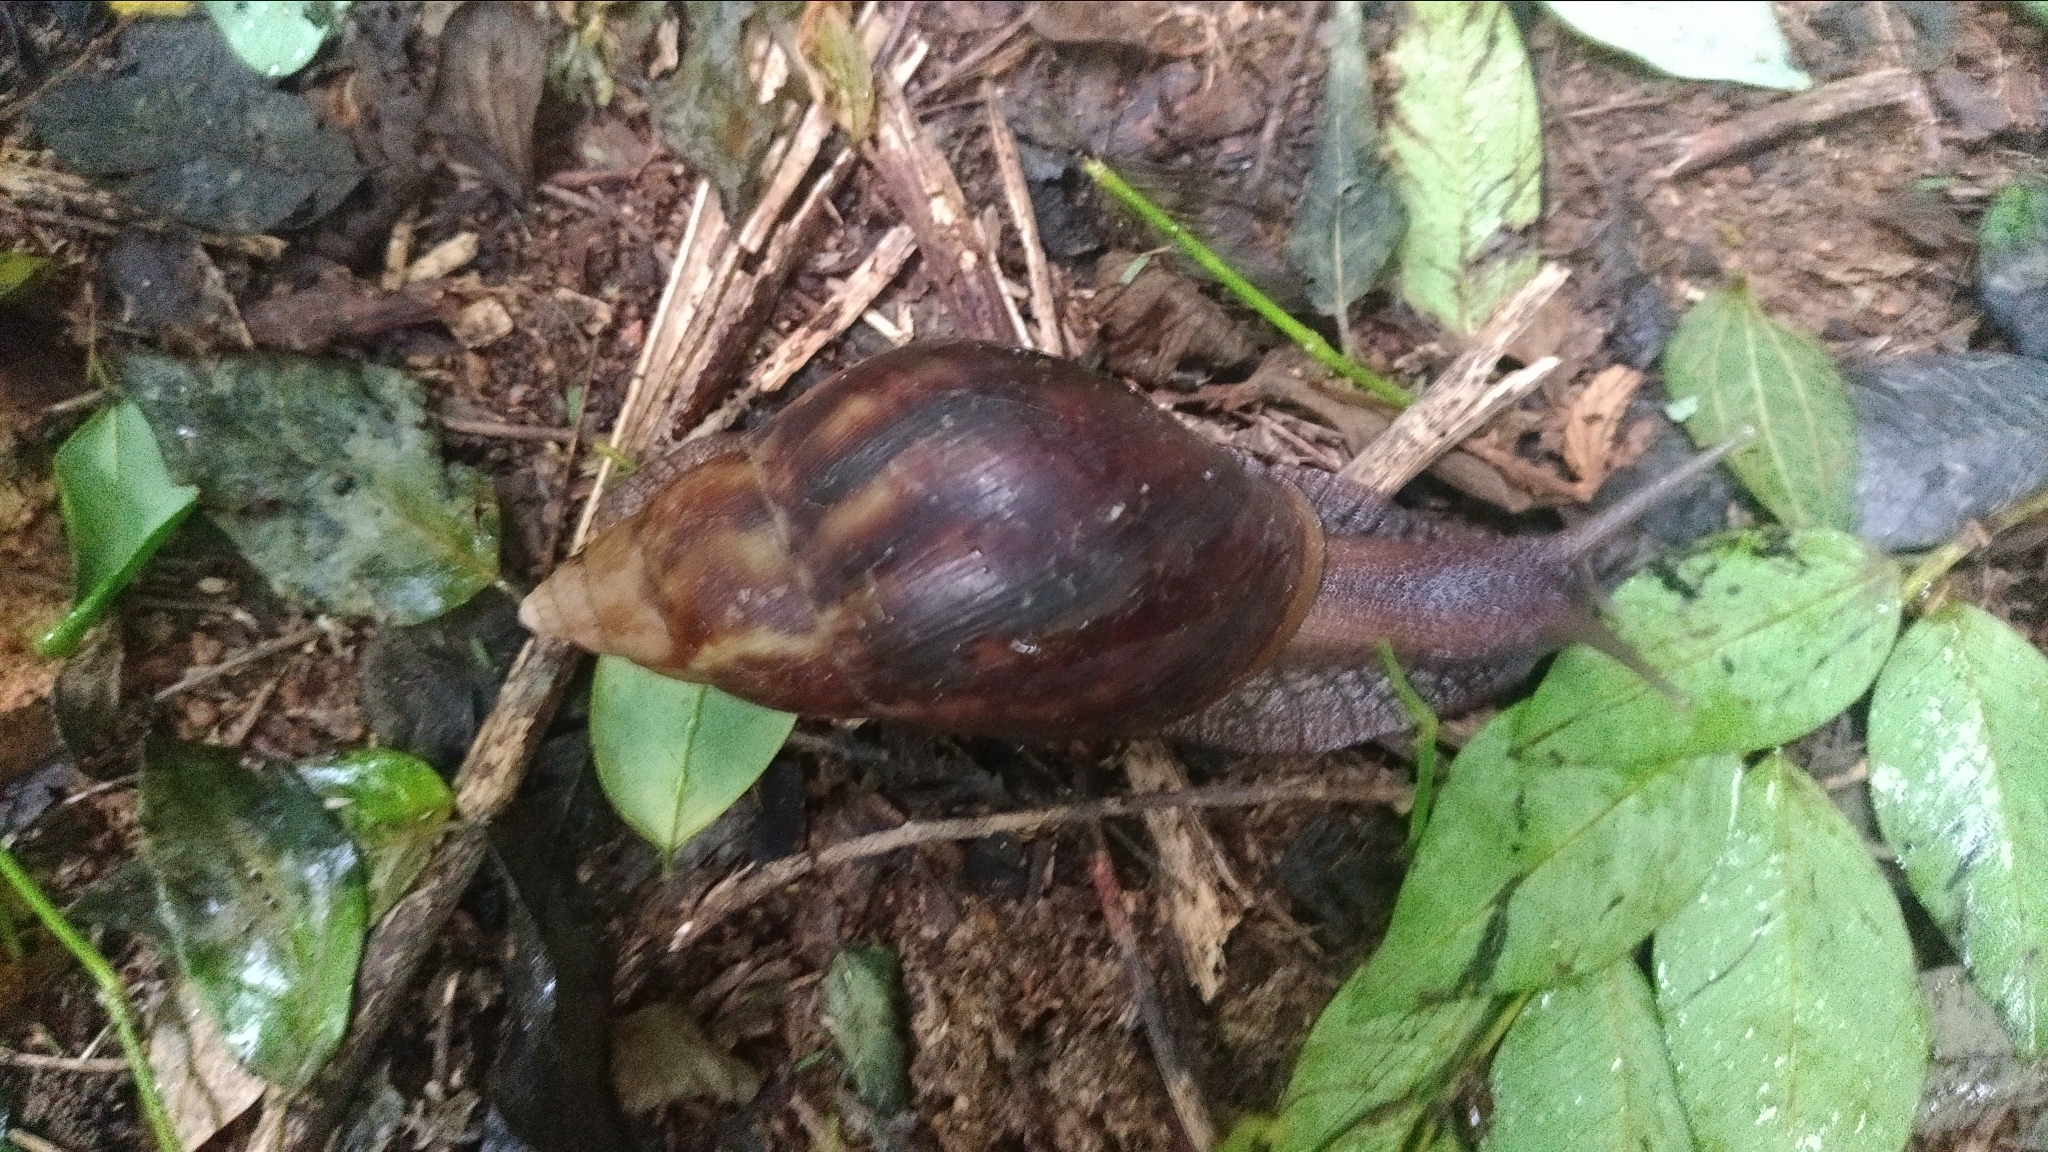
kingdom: Animalia
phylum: Mollusca
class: Gastropoda
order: Stylommatophora
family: Achatinidae
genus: Lissachatina
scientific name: Lissachatina fulica
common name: Giant african snail
